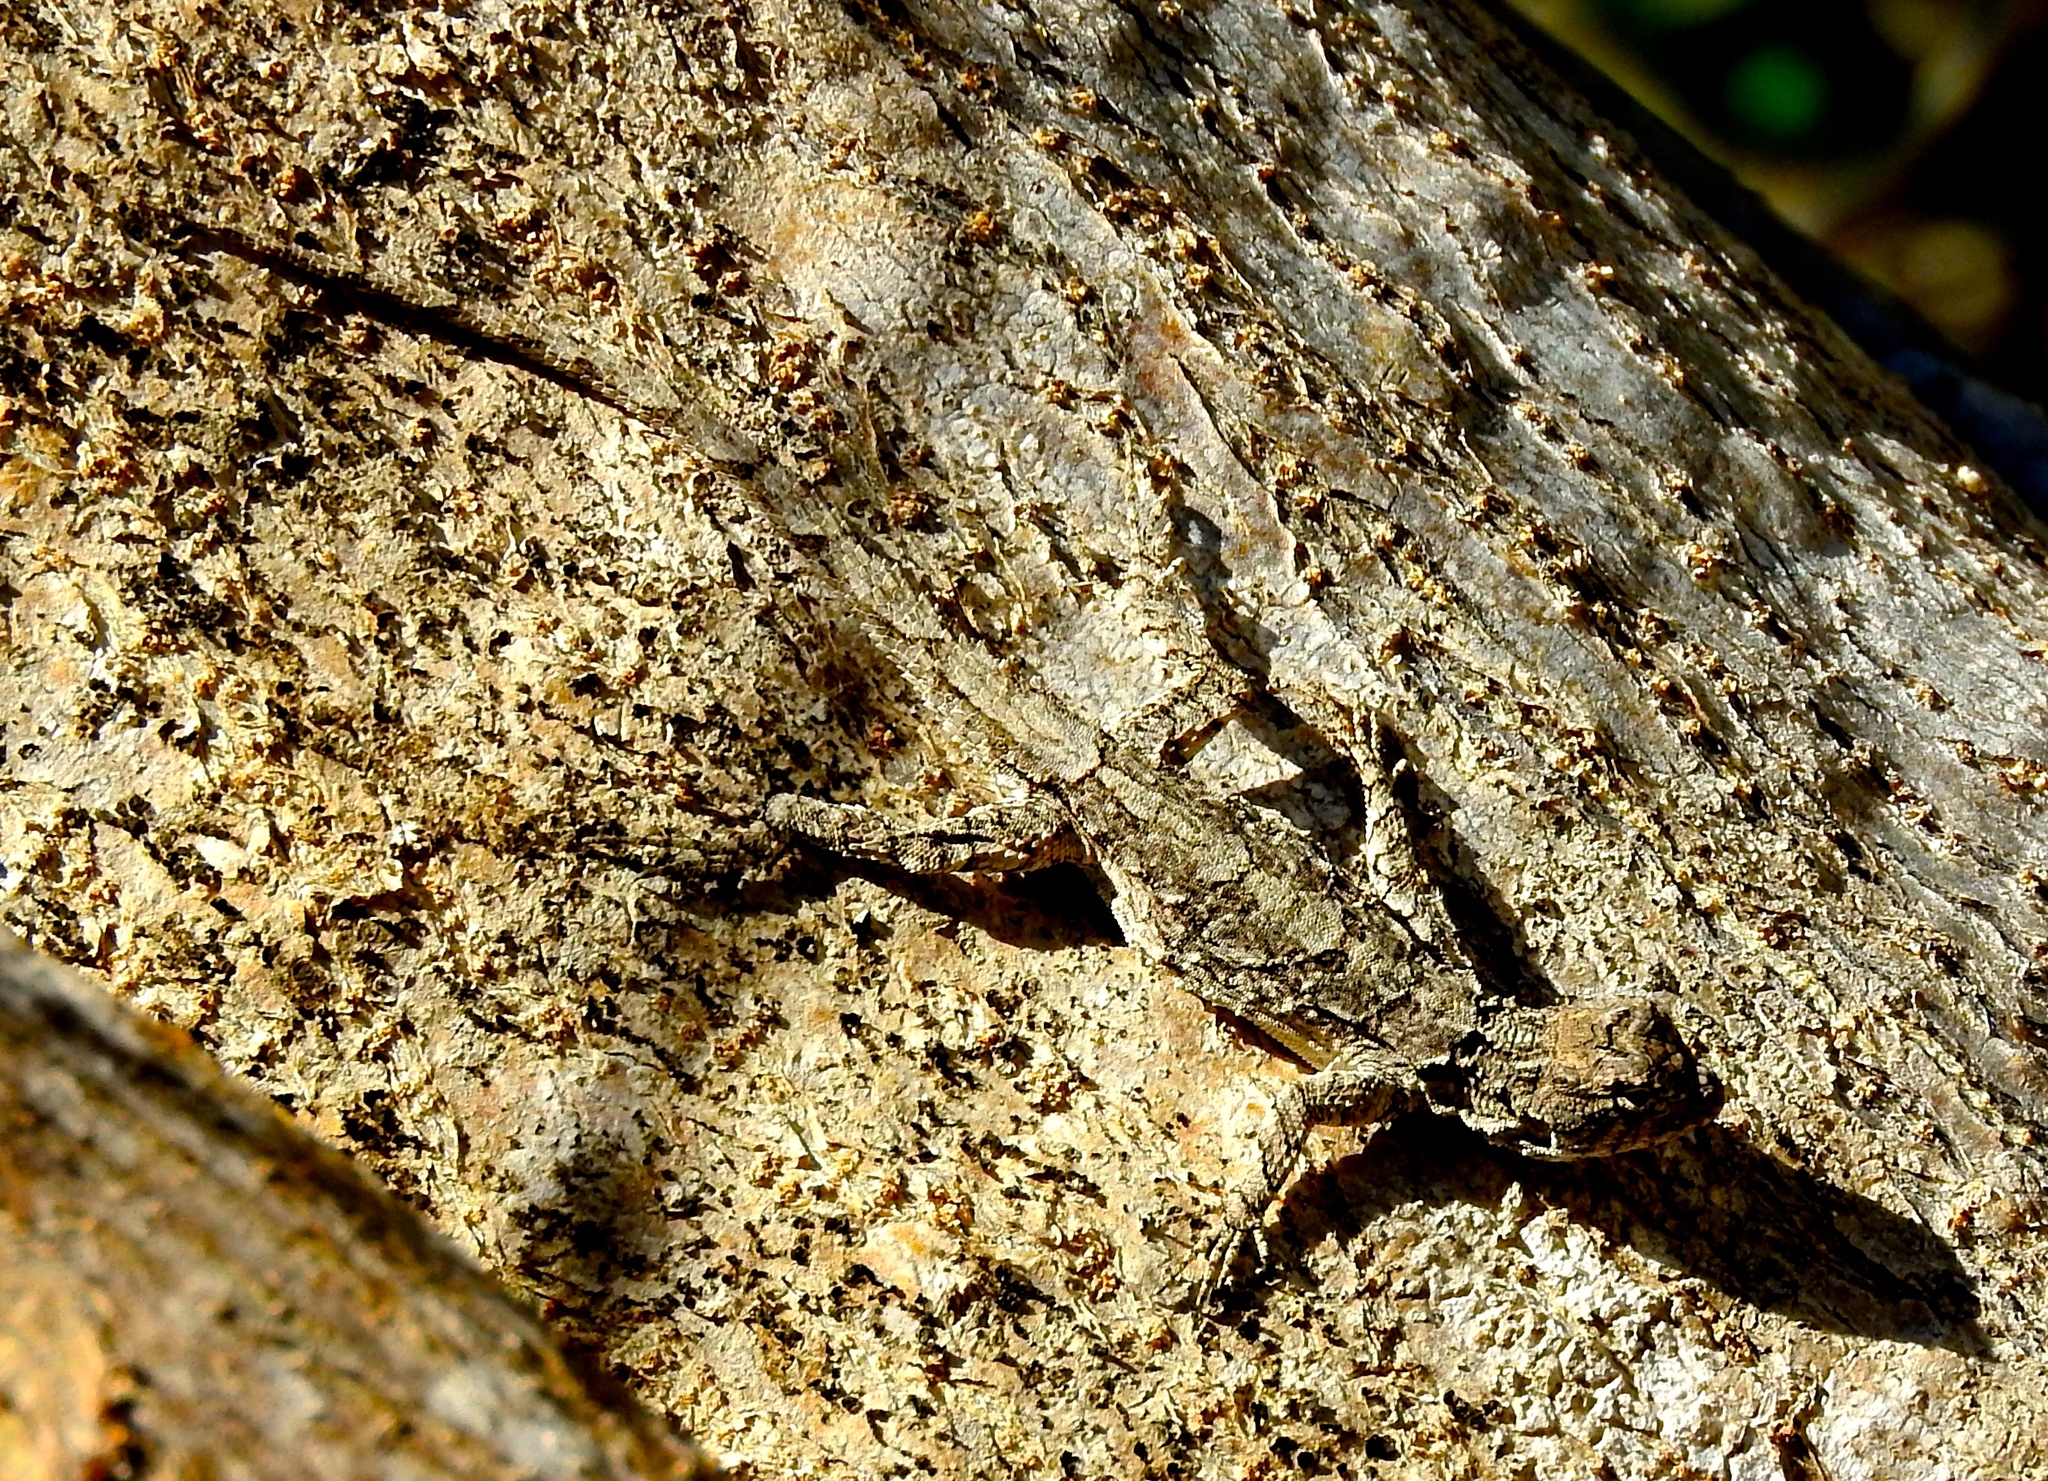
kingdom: Animalia
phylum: Chordata
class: Squamata
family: Phrynosomatidae
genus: Urosaurus
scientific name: Urosaurus bicarinatus
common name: Tropical tree lizard
